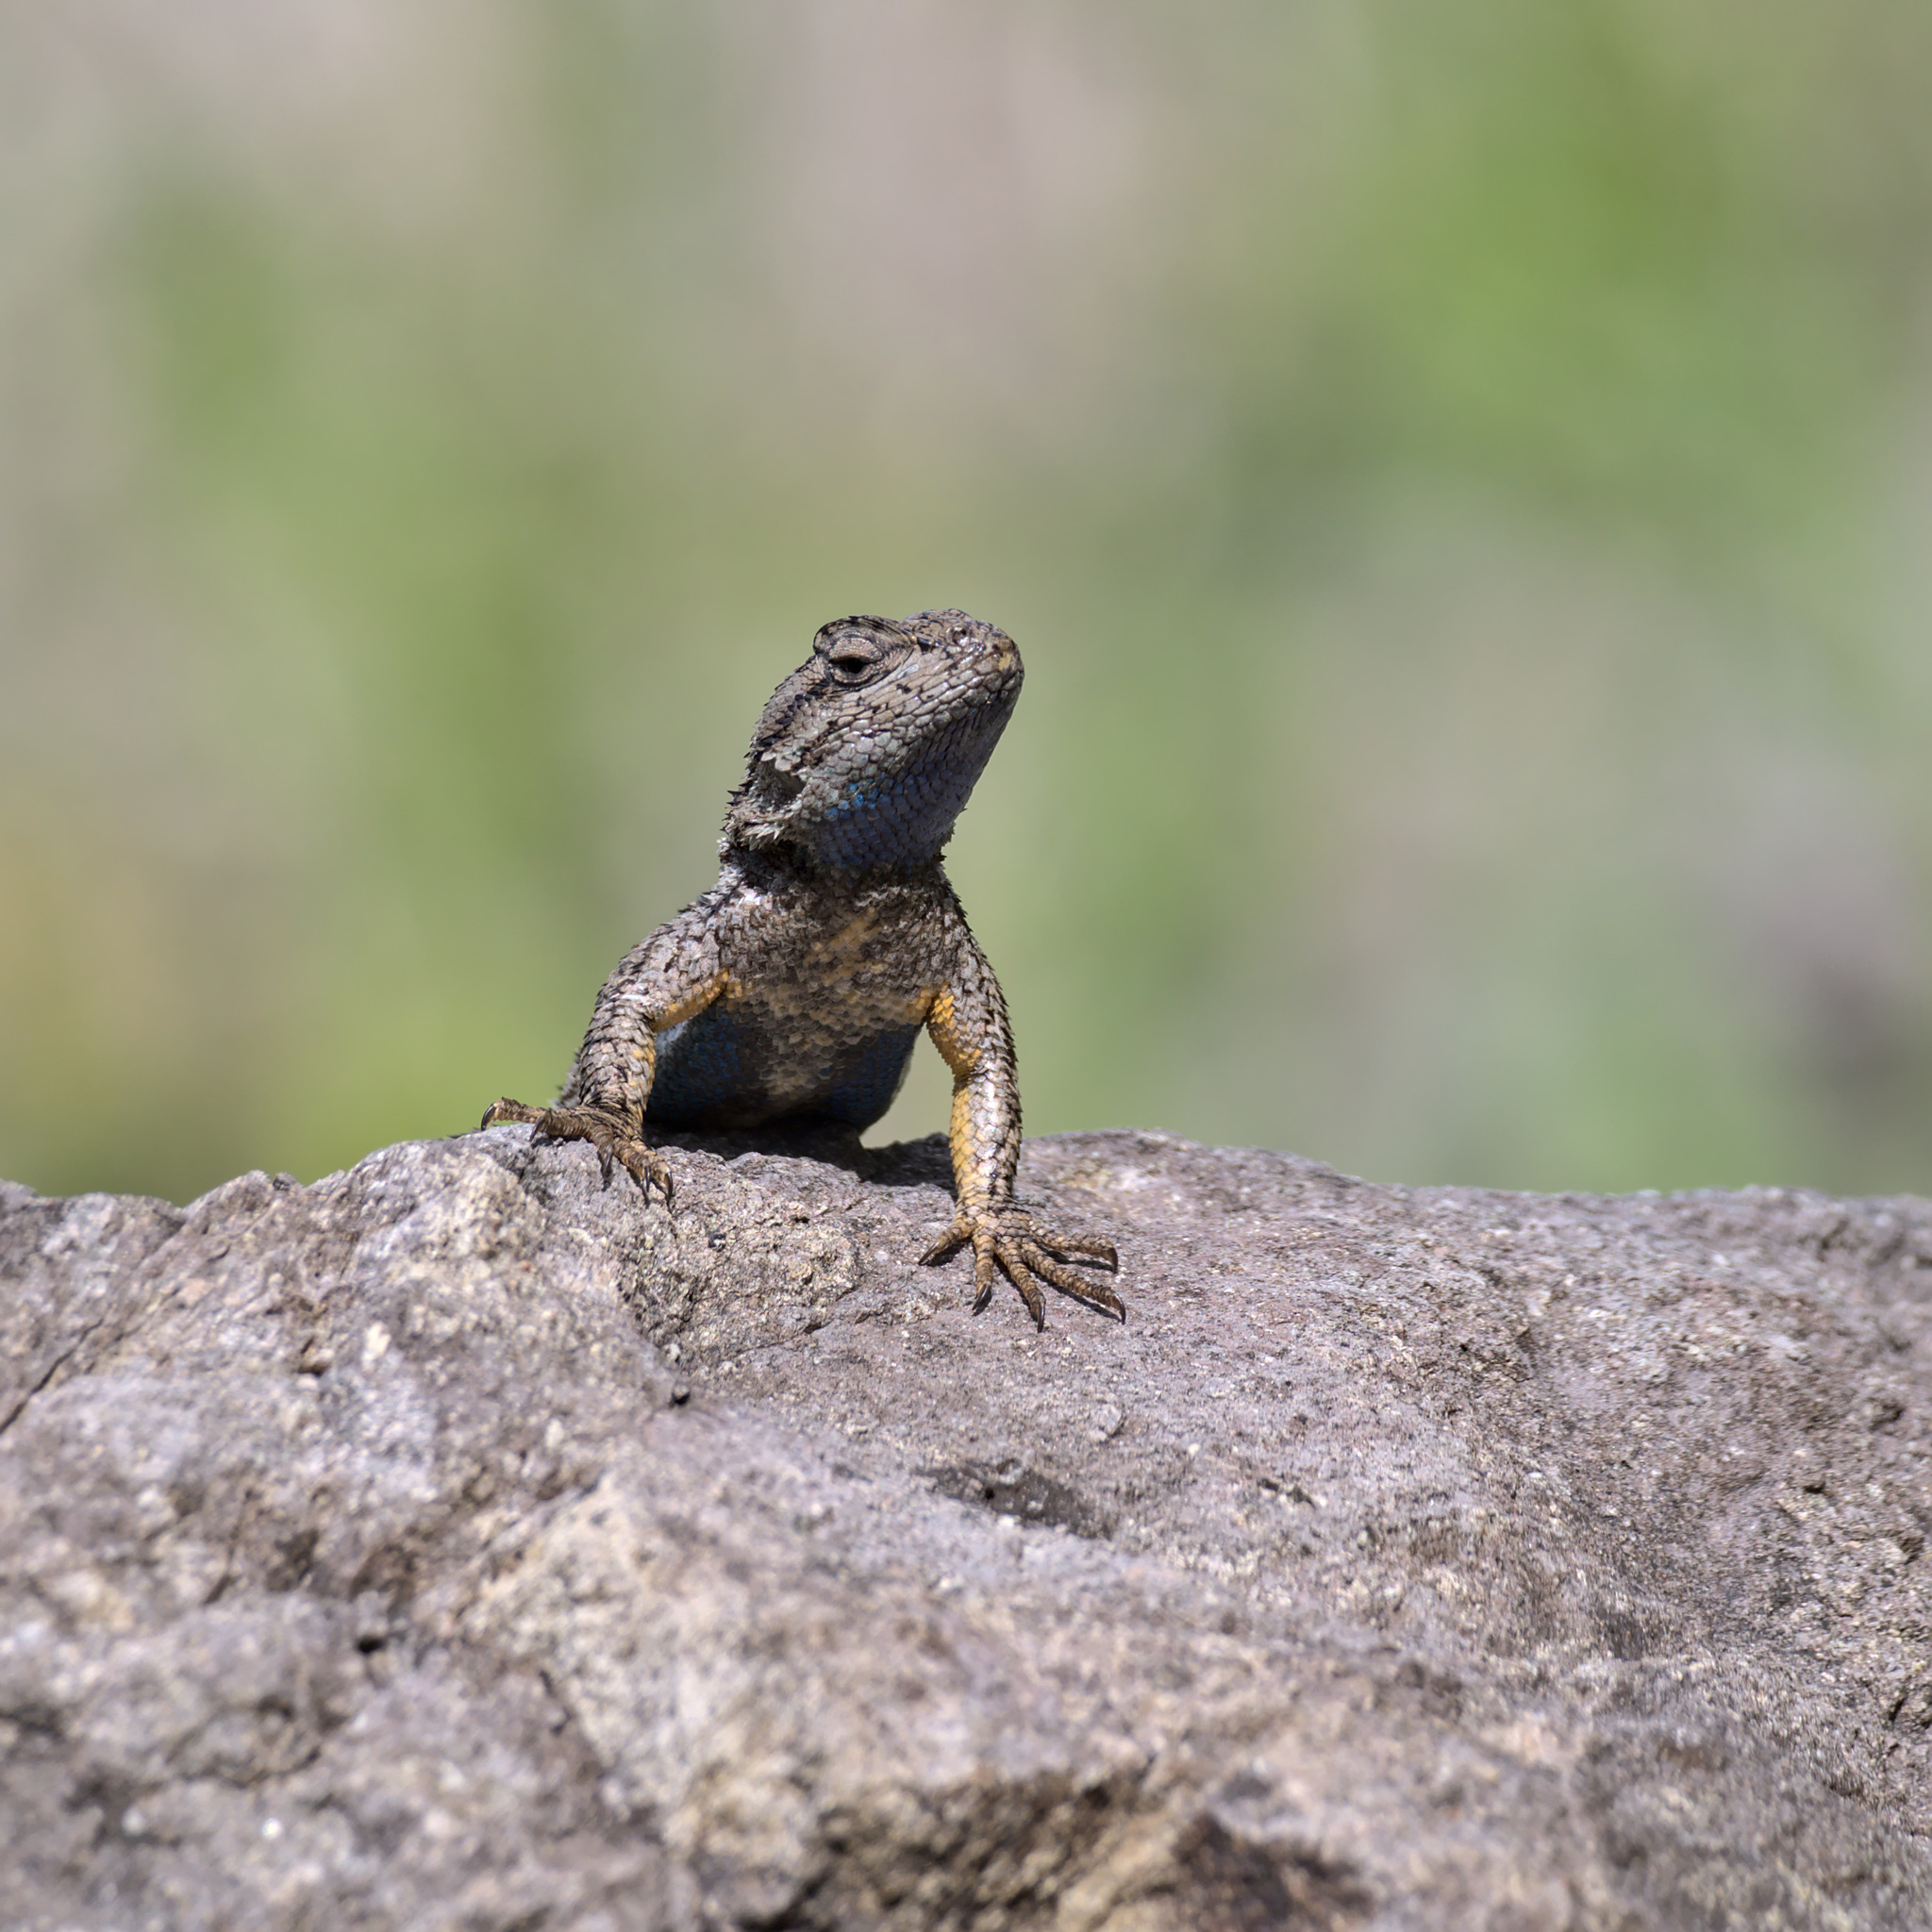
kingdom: Animalia
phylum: Chordata
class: Squamata
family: Phrynosomatidae
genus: Sceloporus
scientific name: Sceloporus occidentalis
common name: Western fence lizard
